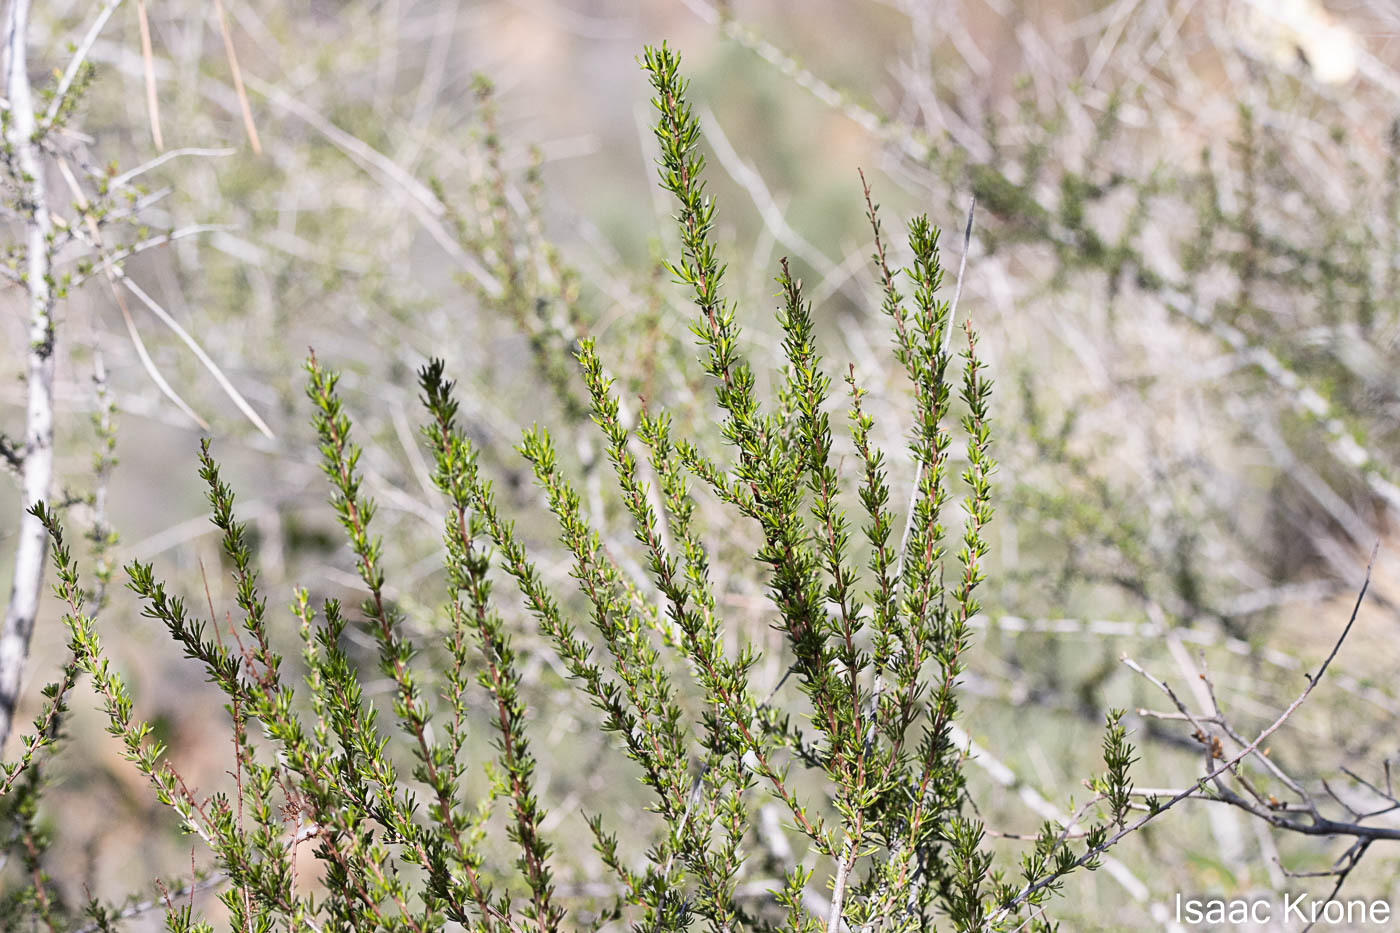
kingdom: Plantae
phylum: Tracheophyta
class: Magnoliopsida
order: Rosales
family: Rosaceae
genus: Adenostoma
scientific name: Adenostoma fasciculatum
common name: Chamise
